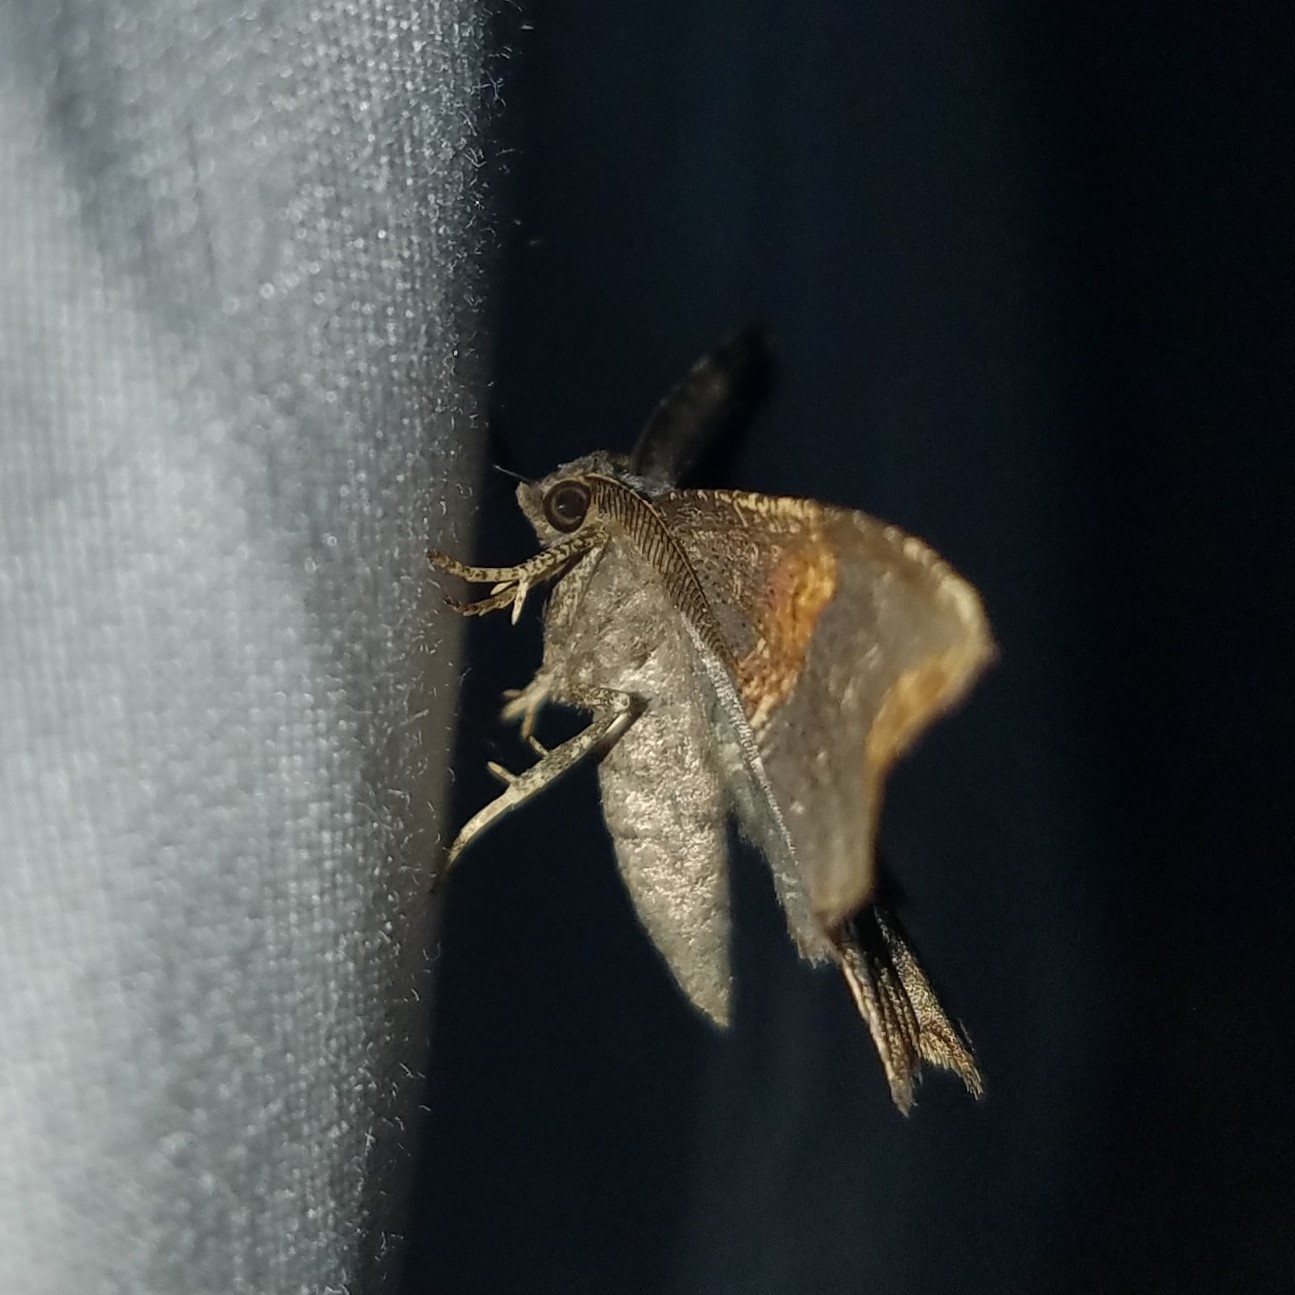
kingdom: Animalia
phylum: Arthropoda
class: Insecta
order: Lepidoptera
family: Geometridae
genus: Cepphis
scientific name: Cepphis decoloraria
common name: Dark scallop moth
